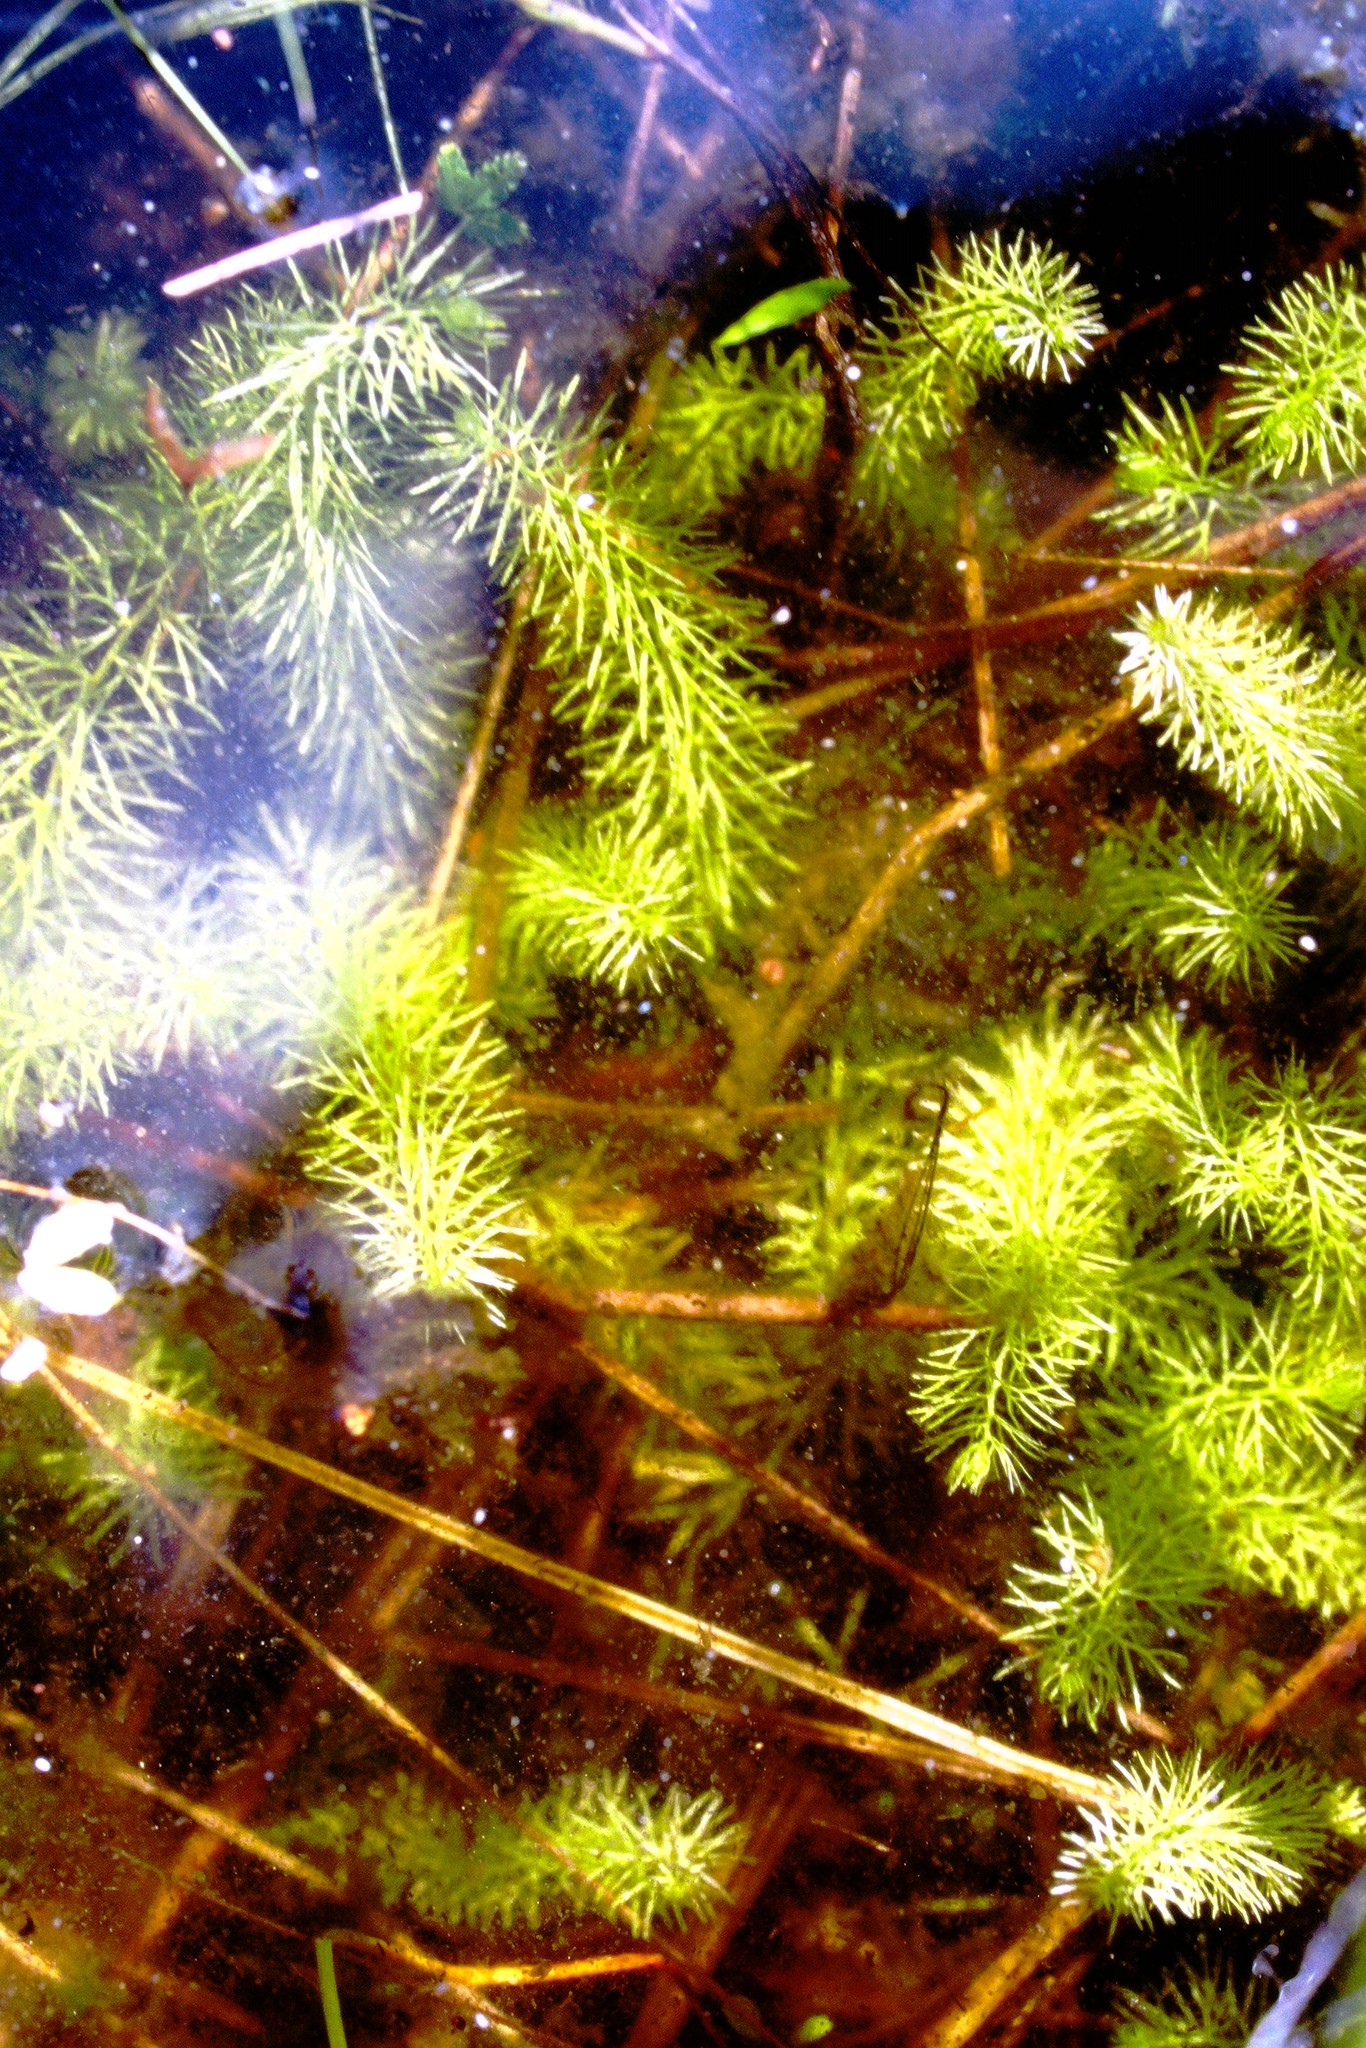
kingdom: Plantae
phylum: Tracheophyta
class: Magnoliopsida
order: Lamiales
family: Lentibulariaceae
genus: Utricularia
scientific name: Utricularia intermedia
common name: Intermediate bladderwort
